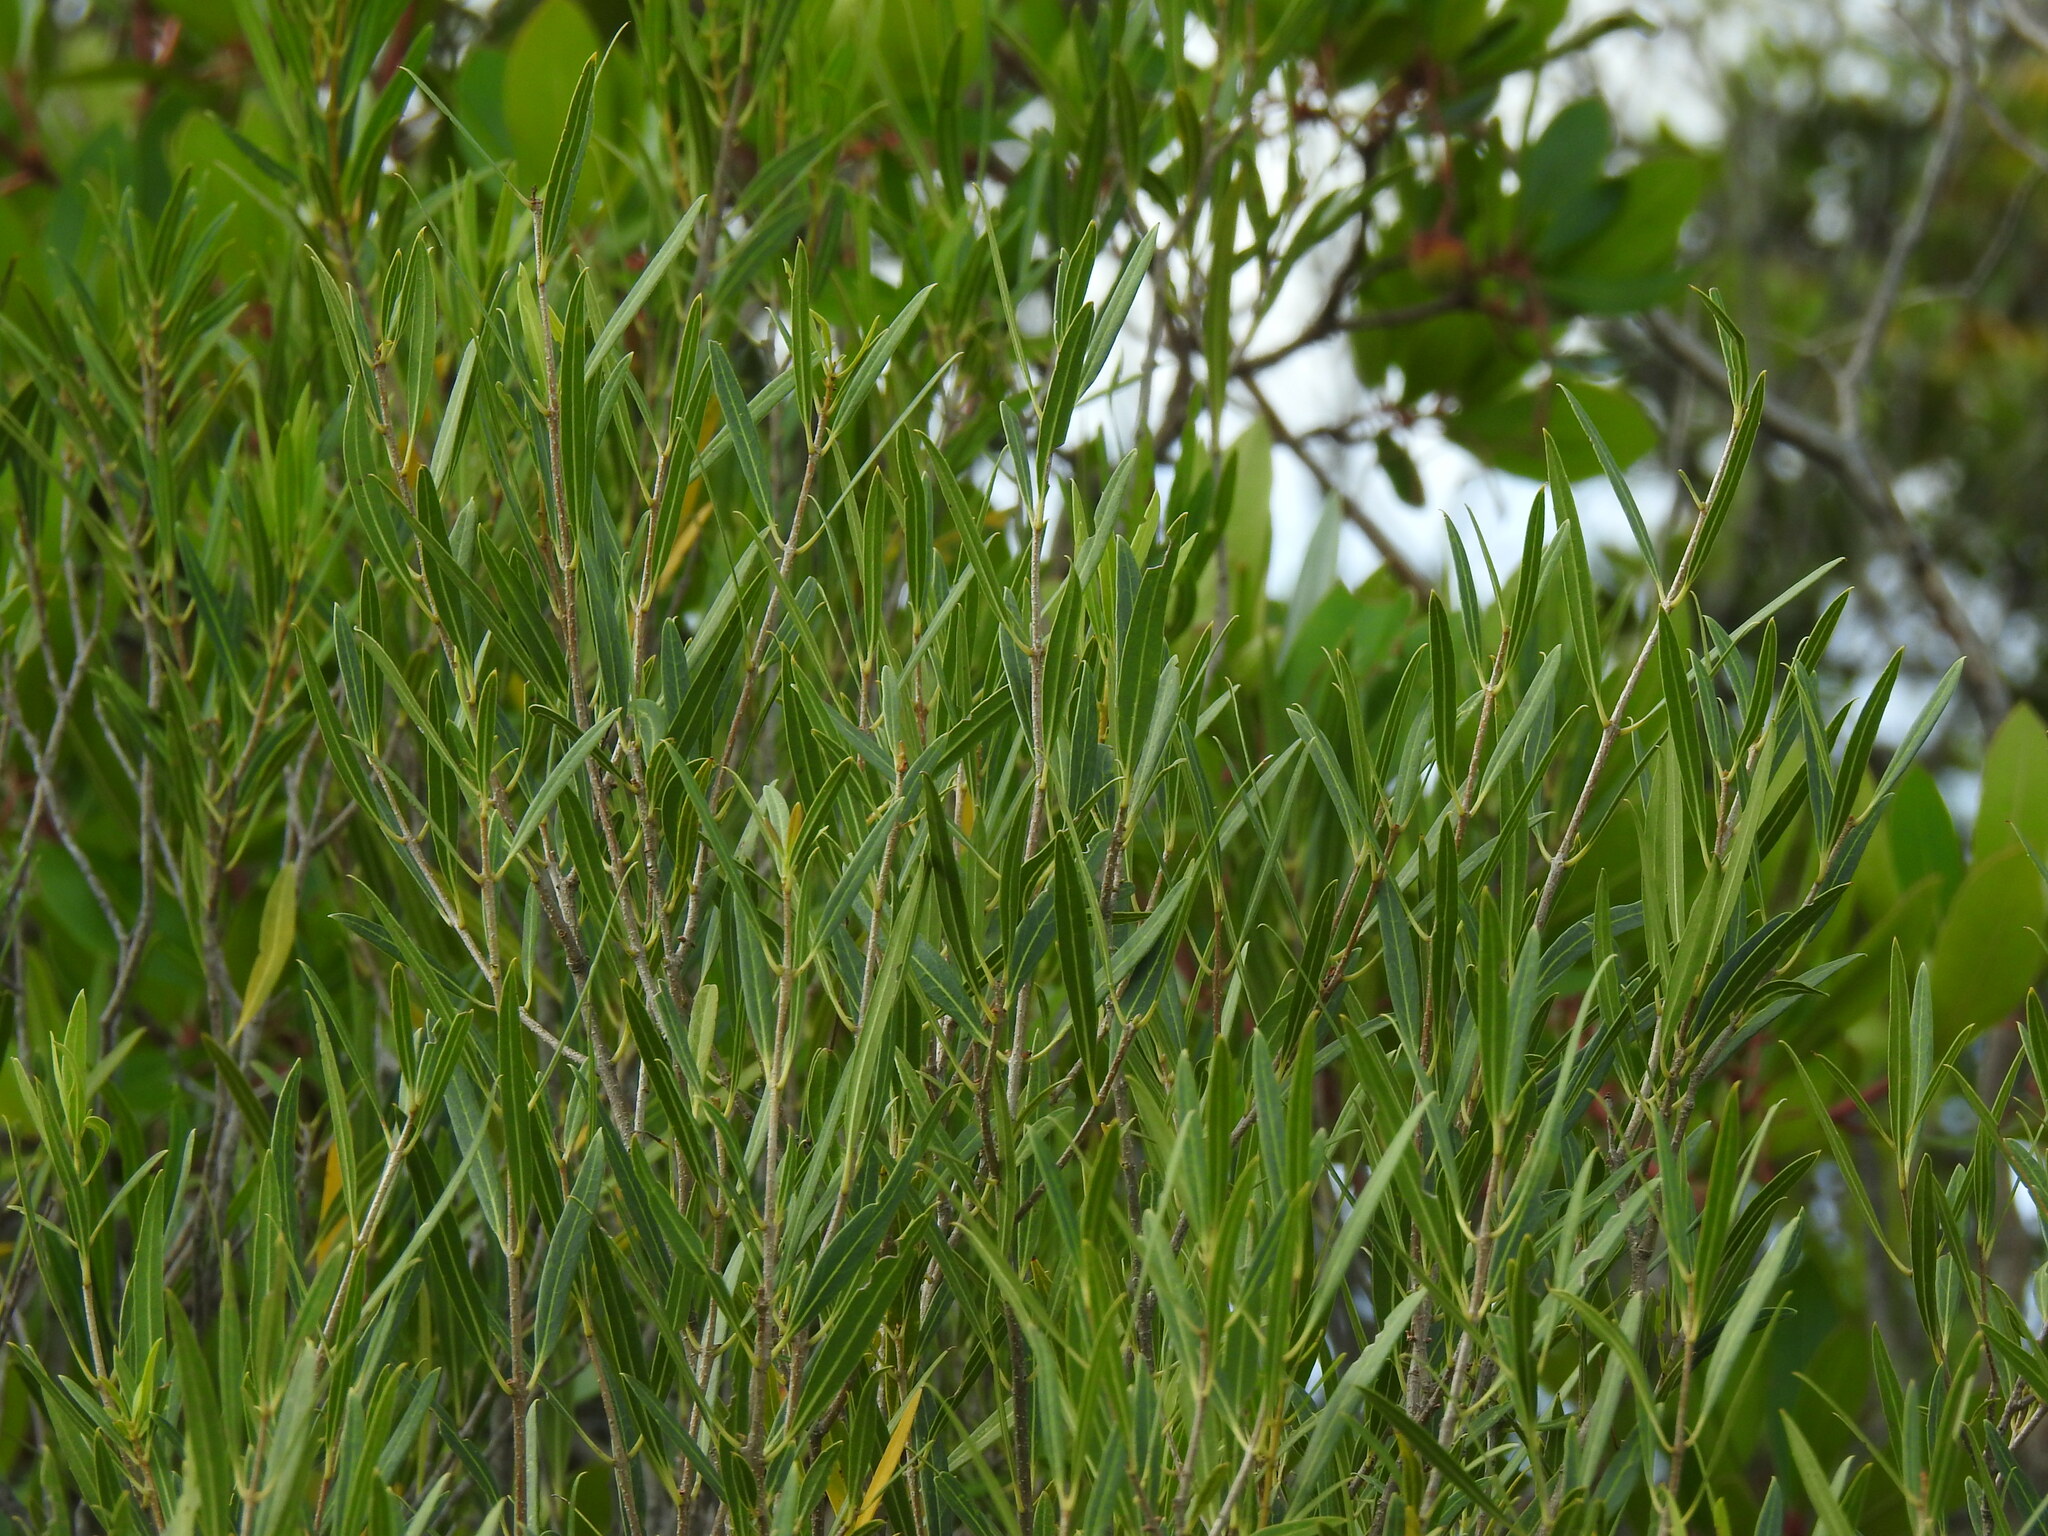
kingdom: Plantae
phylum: Tracheophyta
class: Magnoliopsida
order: Lamiales
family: Oleaceae
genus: Phillyrea
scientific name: Phillyrea angustifolia
